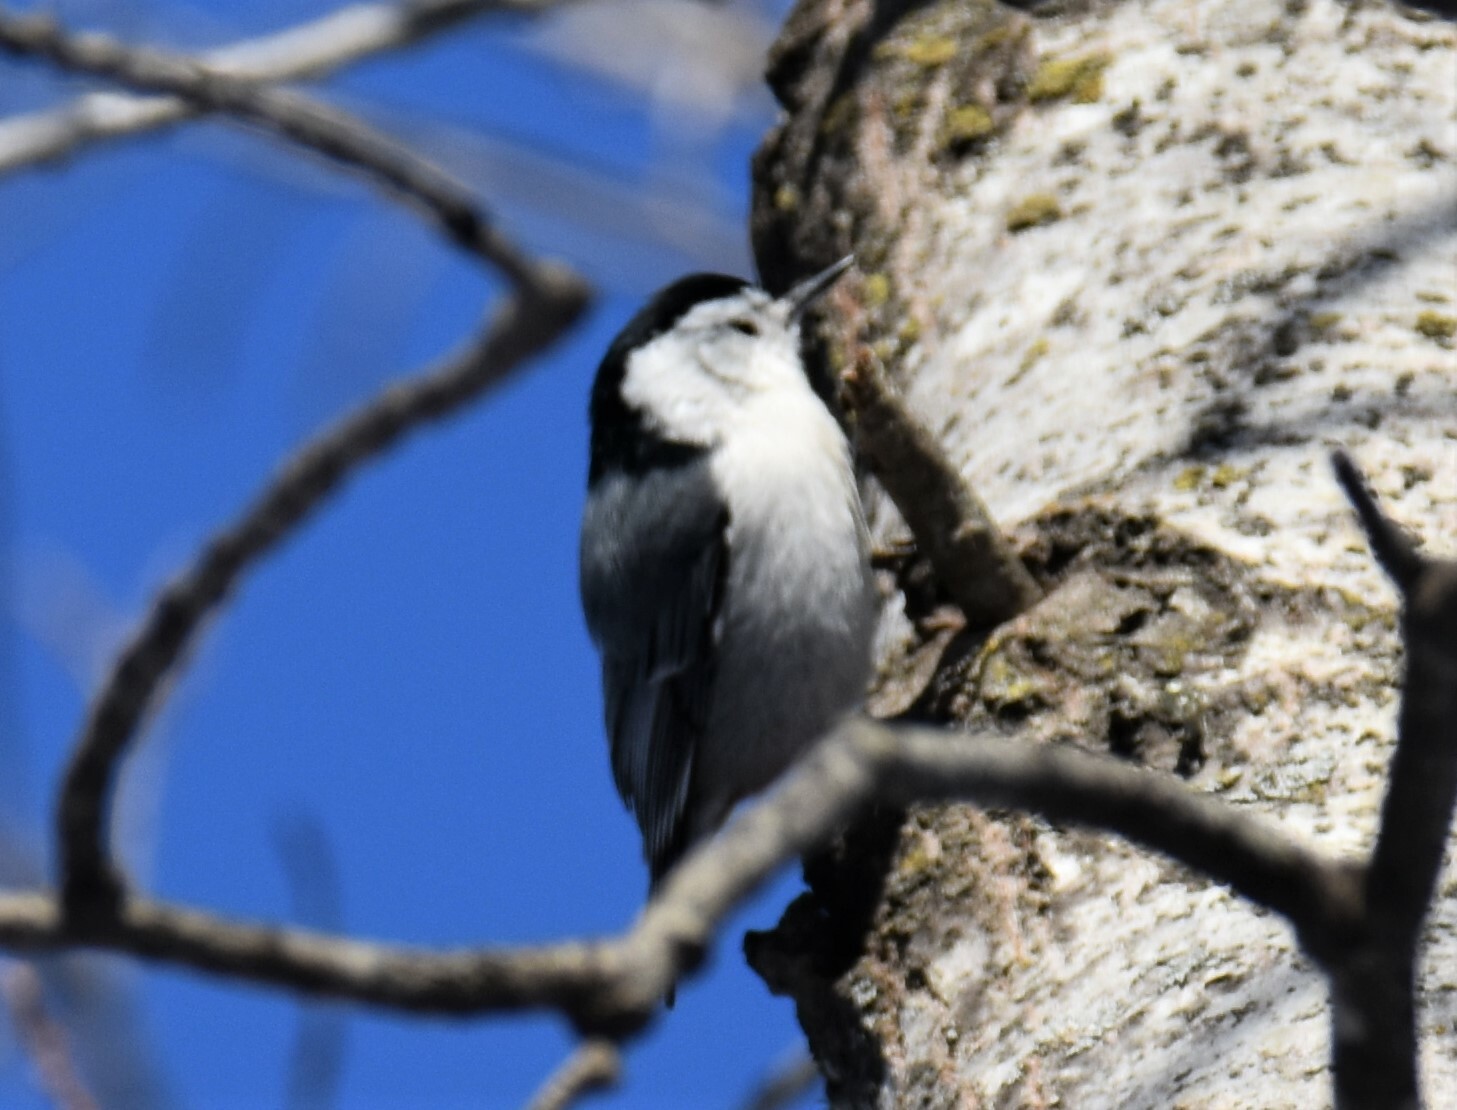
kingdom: Animalia
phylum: Chordata
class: Aves
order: Passeriformes
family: Sittidae
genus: Sitta
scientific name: Sitta carolinensis
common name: White-breasted nuthatch
